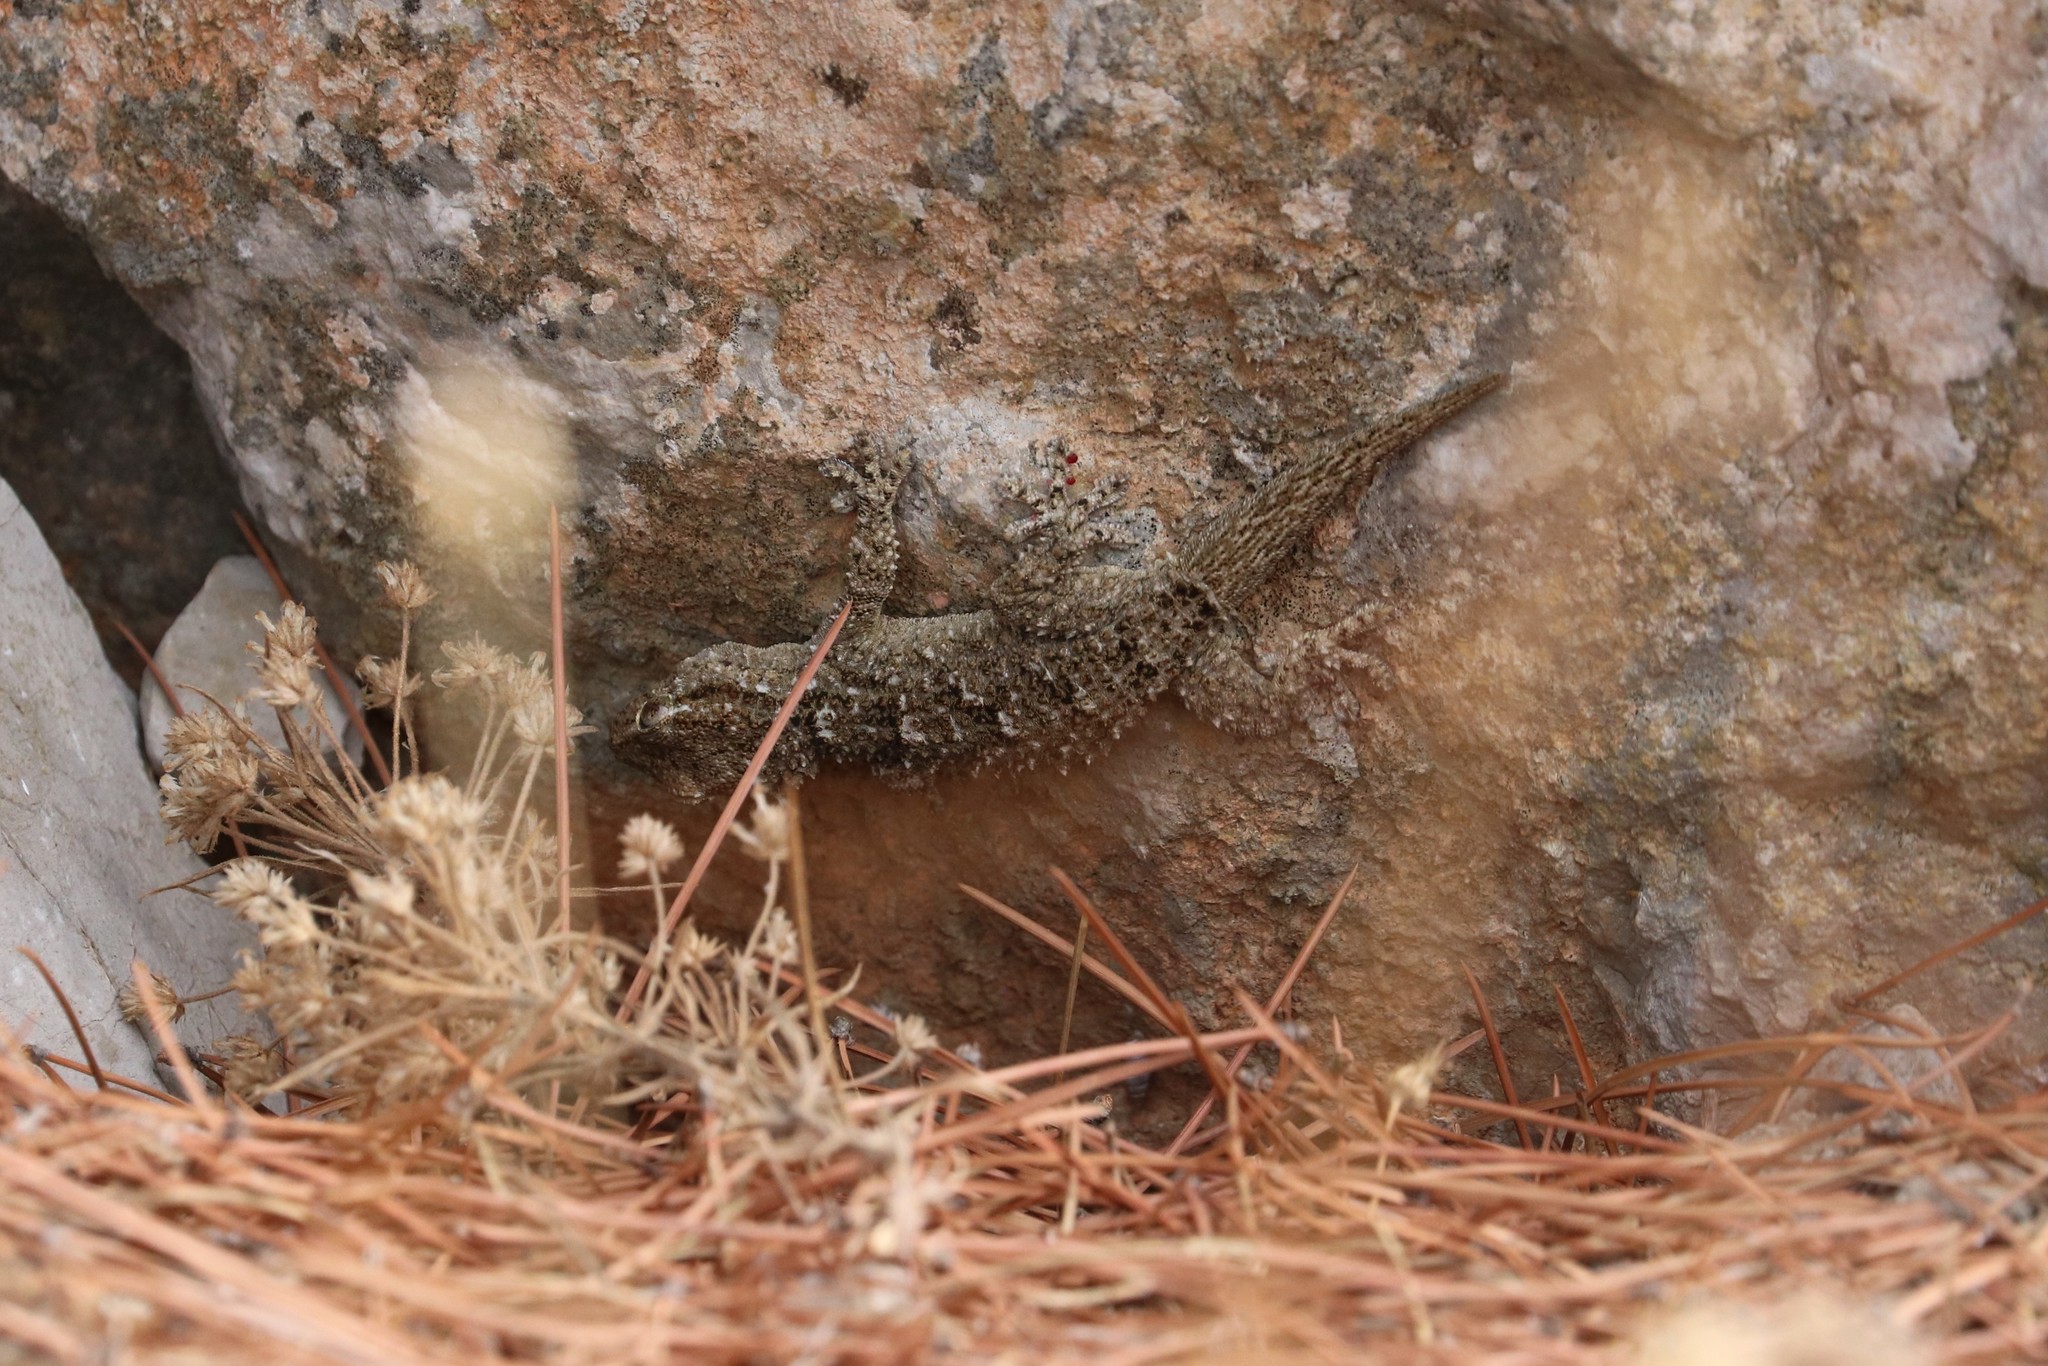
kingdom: Animalia
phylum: Chordata
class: Squamata
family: Phyllodactylidae
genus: Tarentola
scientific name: Tarentola mauritanica
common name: Moorish gecko
